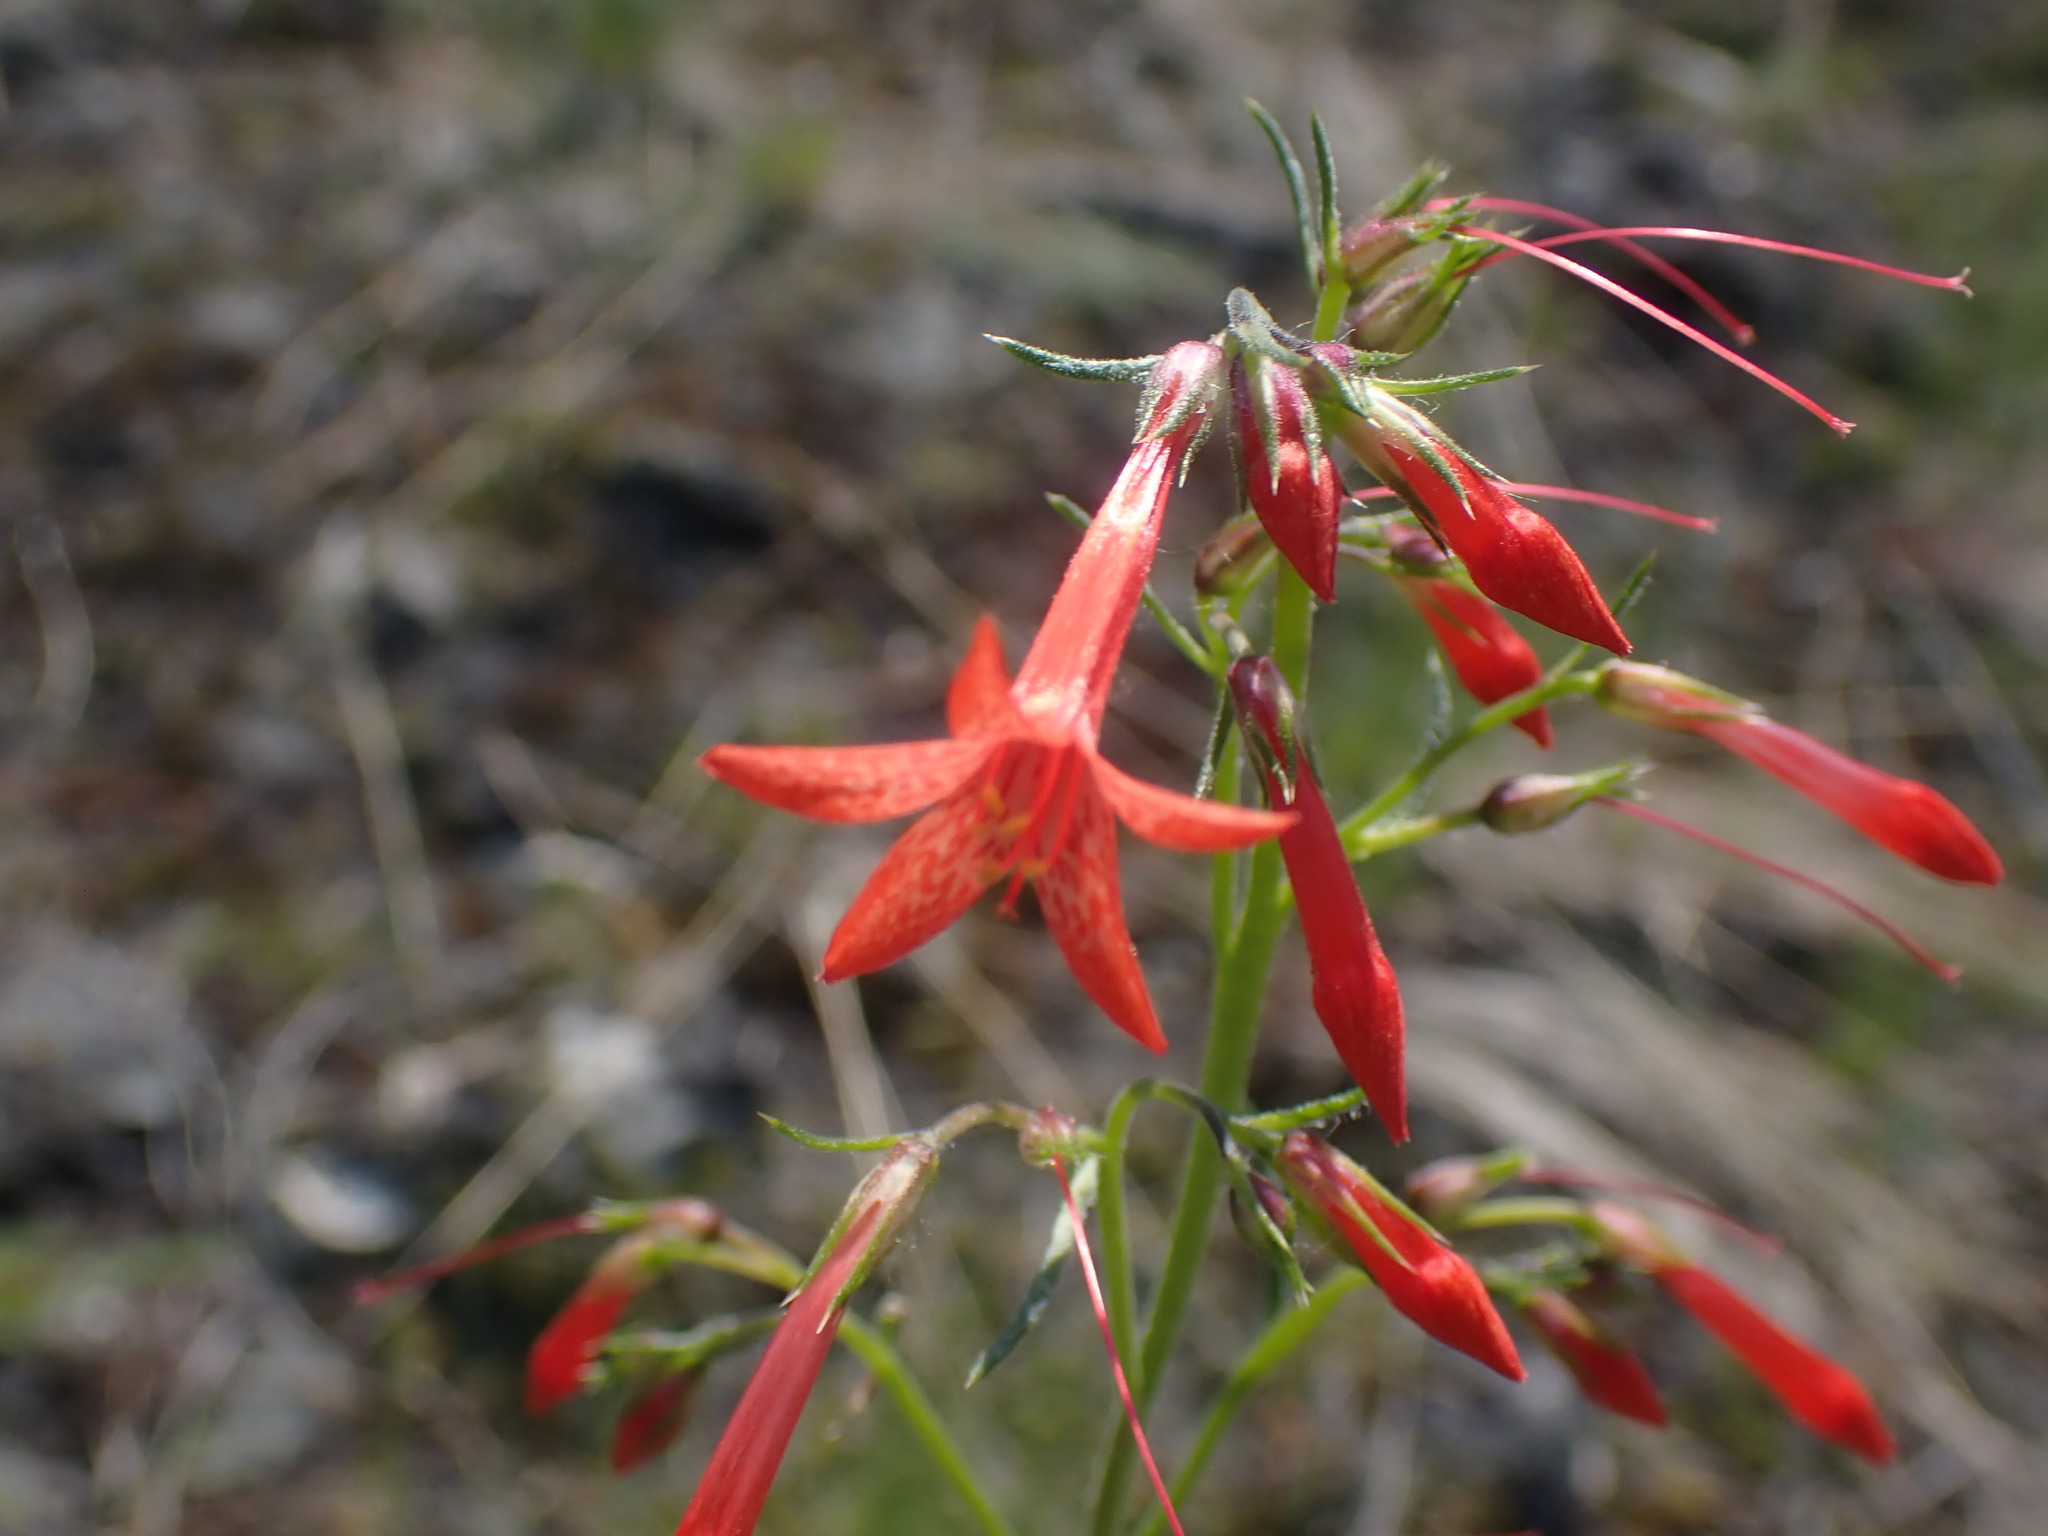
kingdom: Plantae
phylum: Tracheophyta
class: Magnoliopsida
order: Ericales
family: Polemoniaceae
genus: Ipomopsis
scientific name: Ipomopsis aggregata
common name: Scarlet gilia
